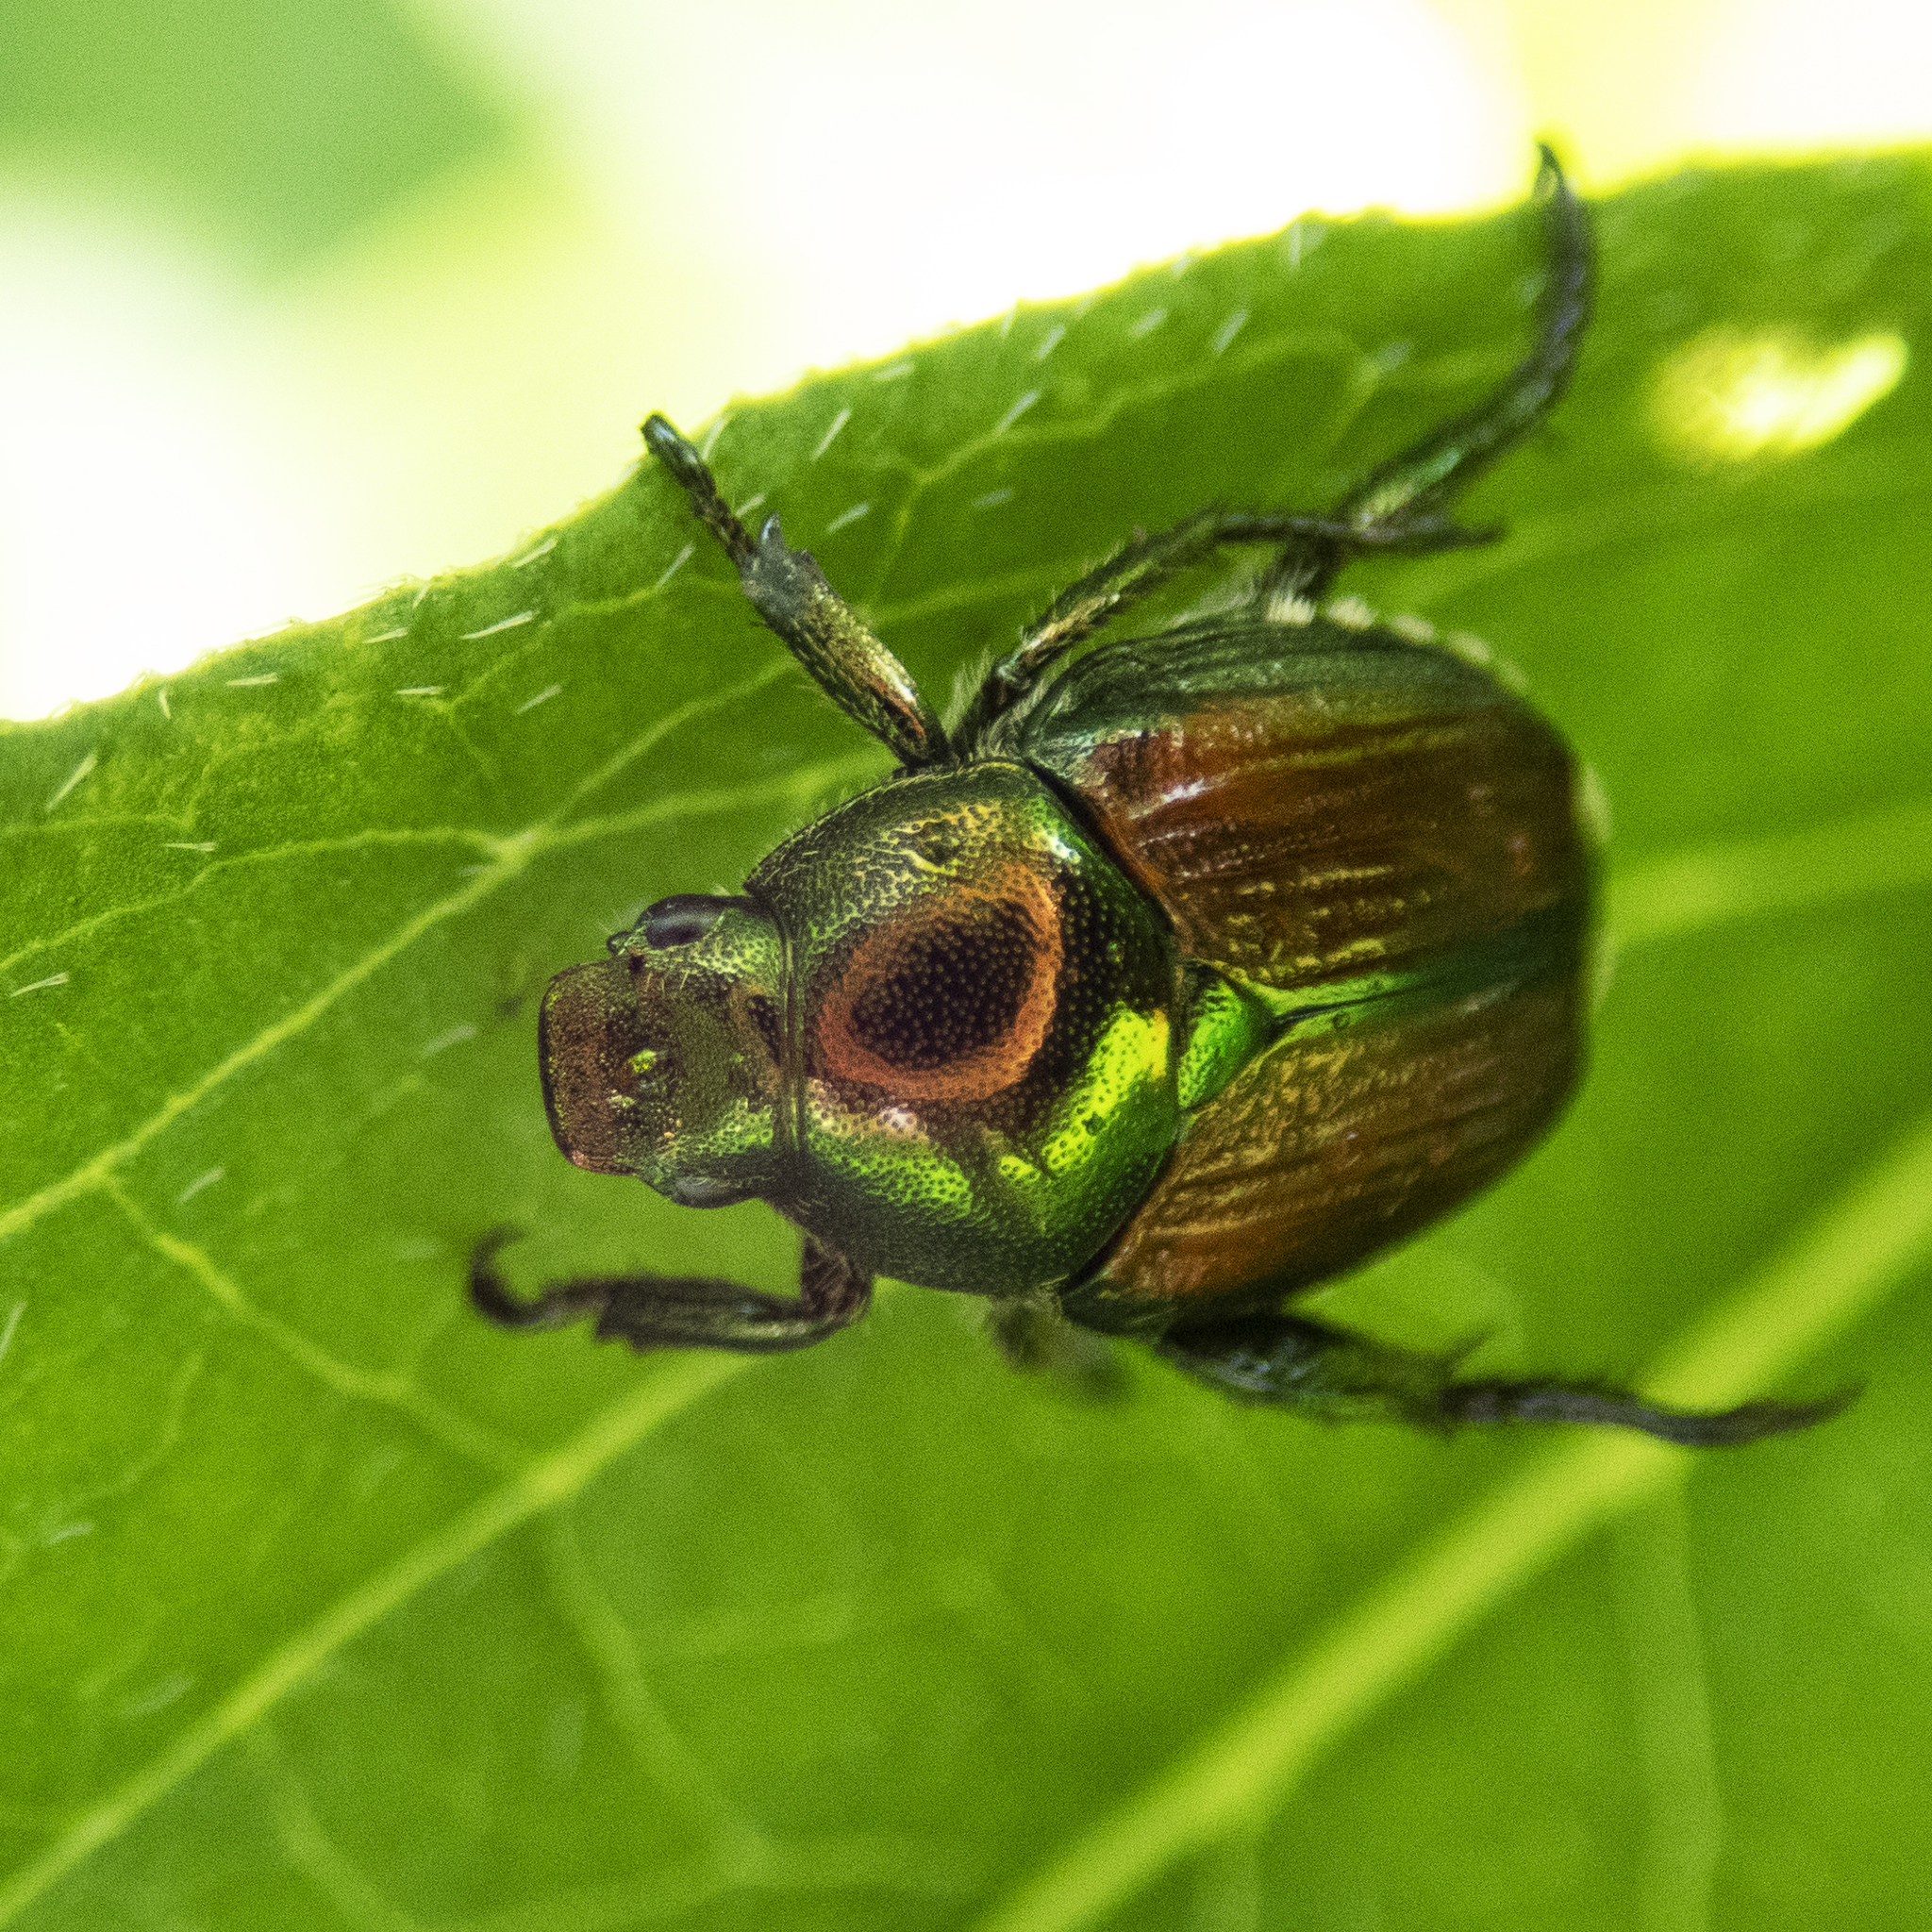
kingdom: Animalia
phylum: Arthropoda
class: Insecta
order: Coleoptera
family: Scarabaeidae
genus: Popillia
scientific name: Popillia japonica
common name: Japanese beetle
